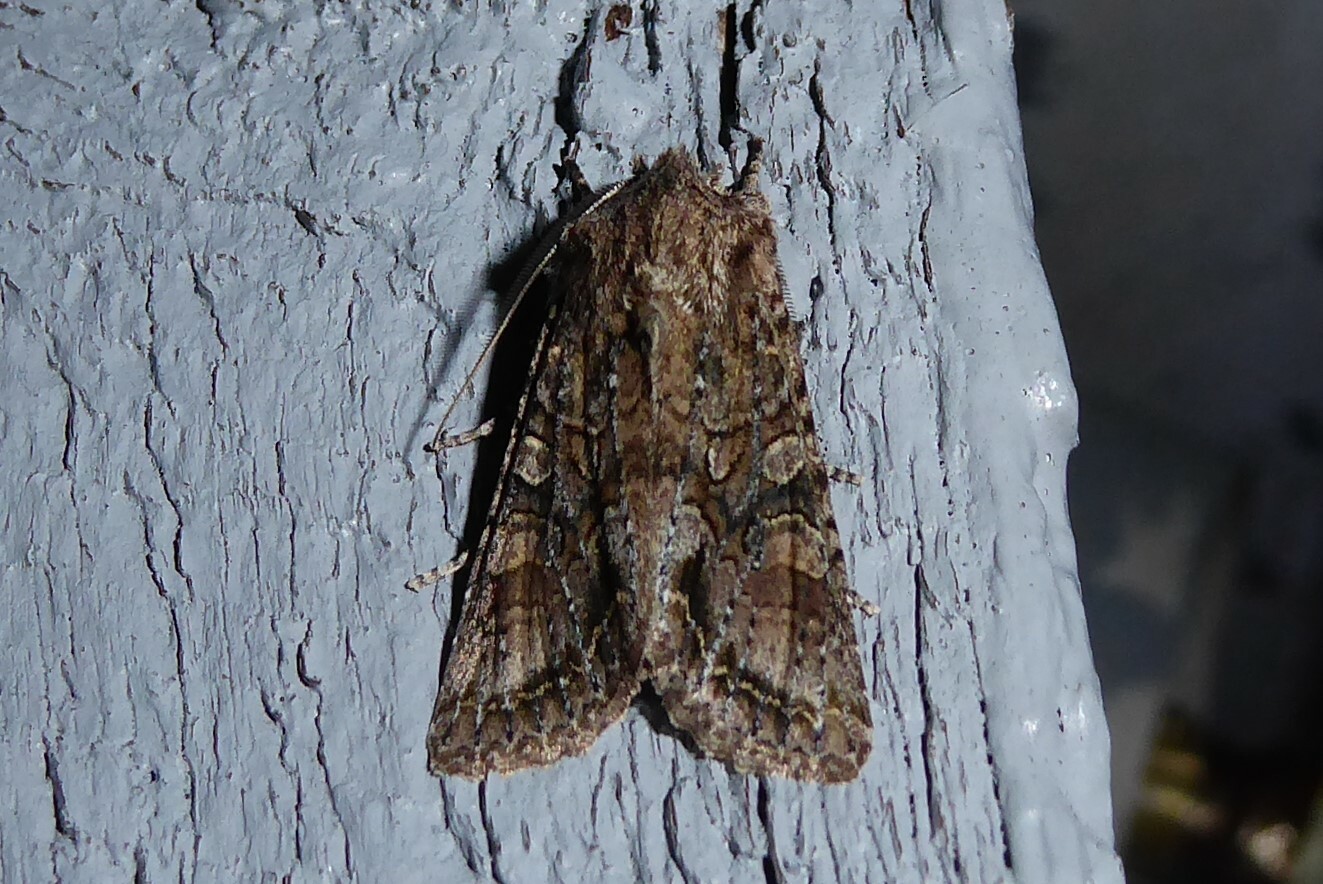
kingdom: Animalia
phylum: Arthropoda
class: Insecta
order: Lepidoptera
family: Noctuidae
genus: Ichneutica
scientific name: Ichneutica mutans
